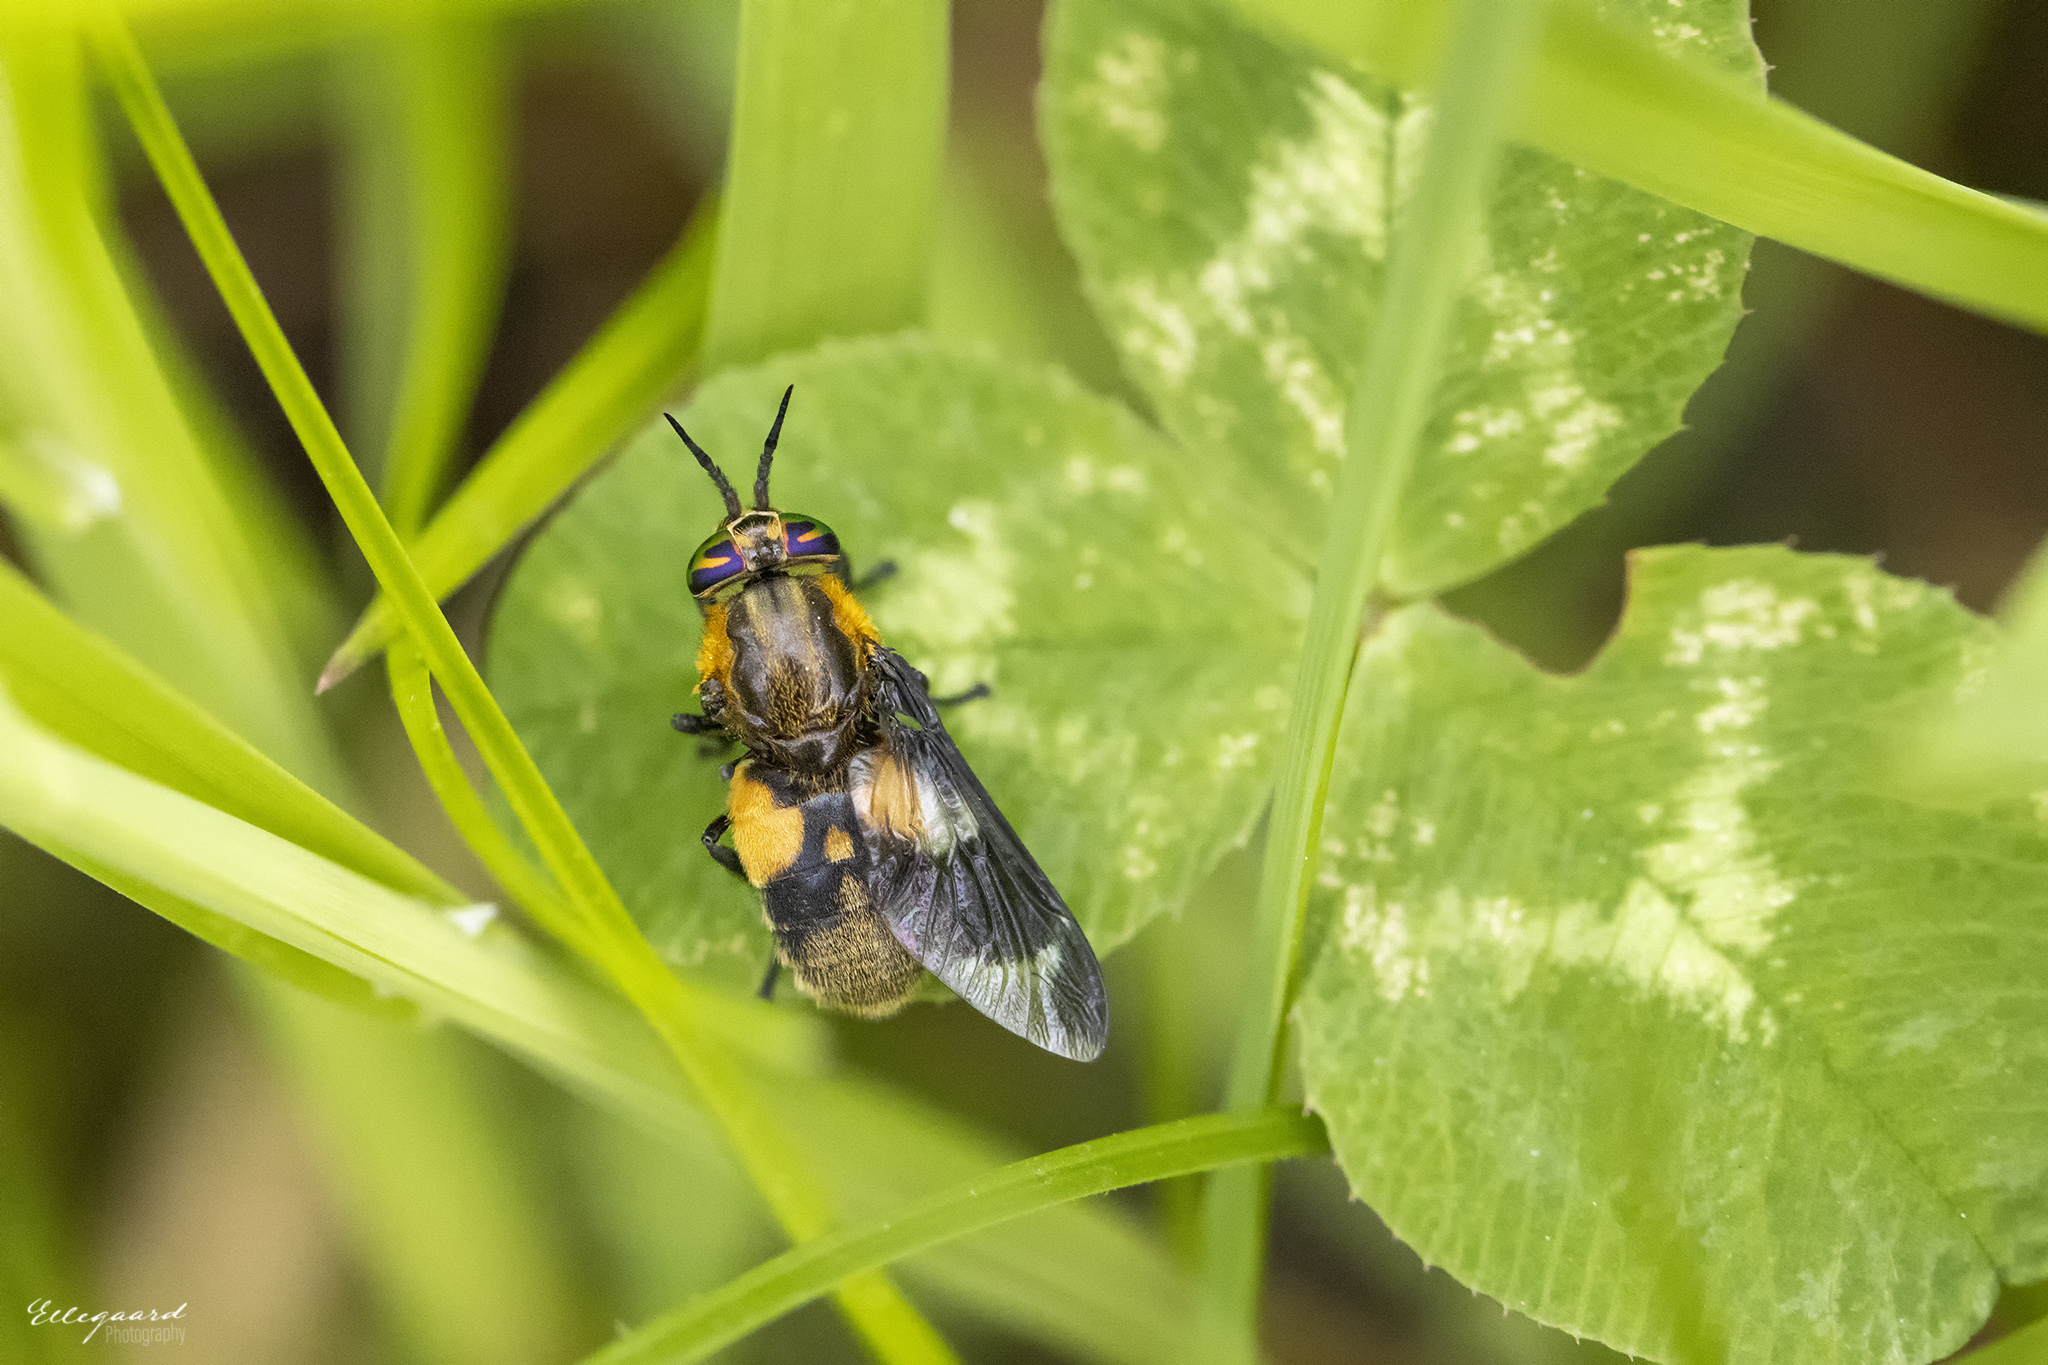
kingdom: Animalia
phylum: Arthropoda
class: Insecta
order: Diptera
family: Tabanidae
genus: Chrysops
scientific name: Chrysops caecutiens
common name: Splayed deerfly
